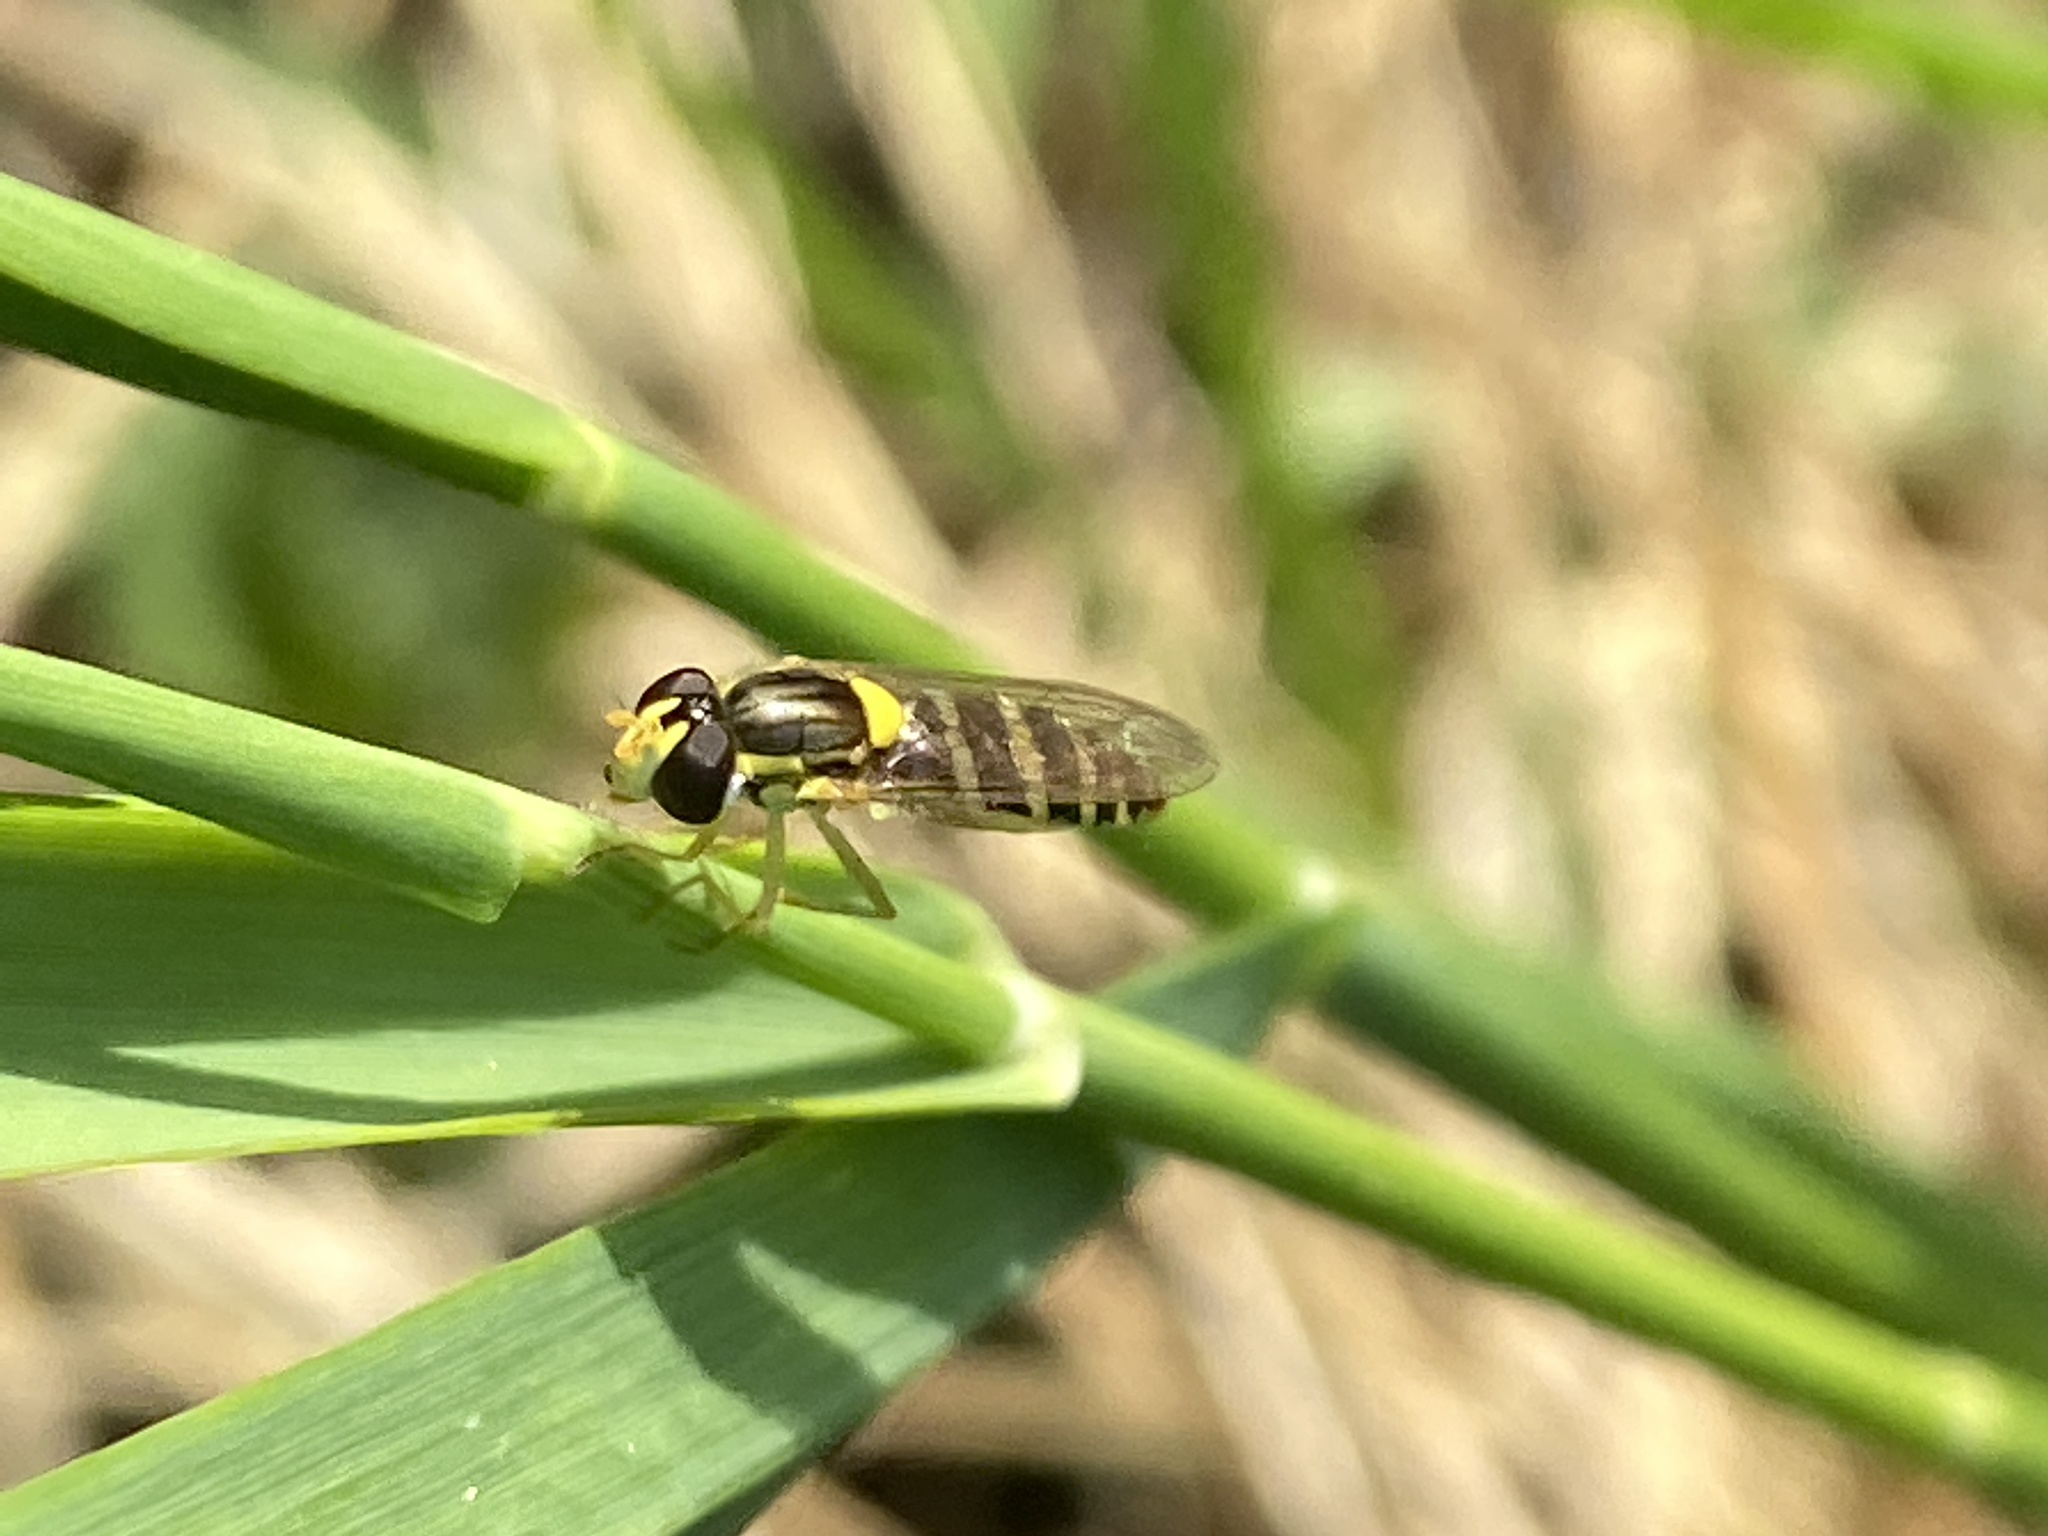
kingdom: Animalia
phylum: Arthropoda
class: Insecta
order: Diptera
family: Syrphidae
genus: Sphaerophoria
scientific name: Sphaerophoria
